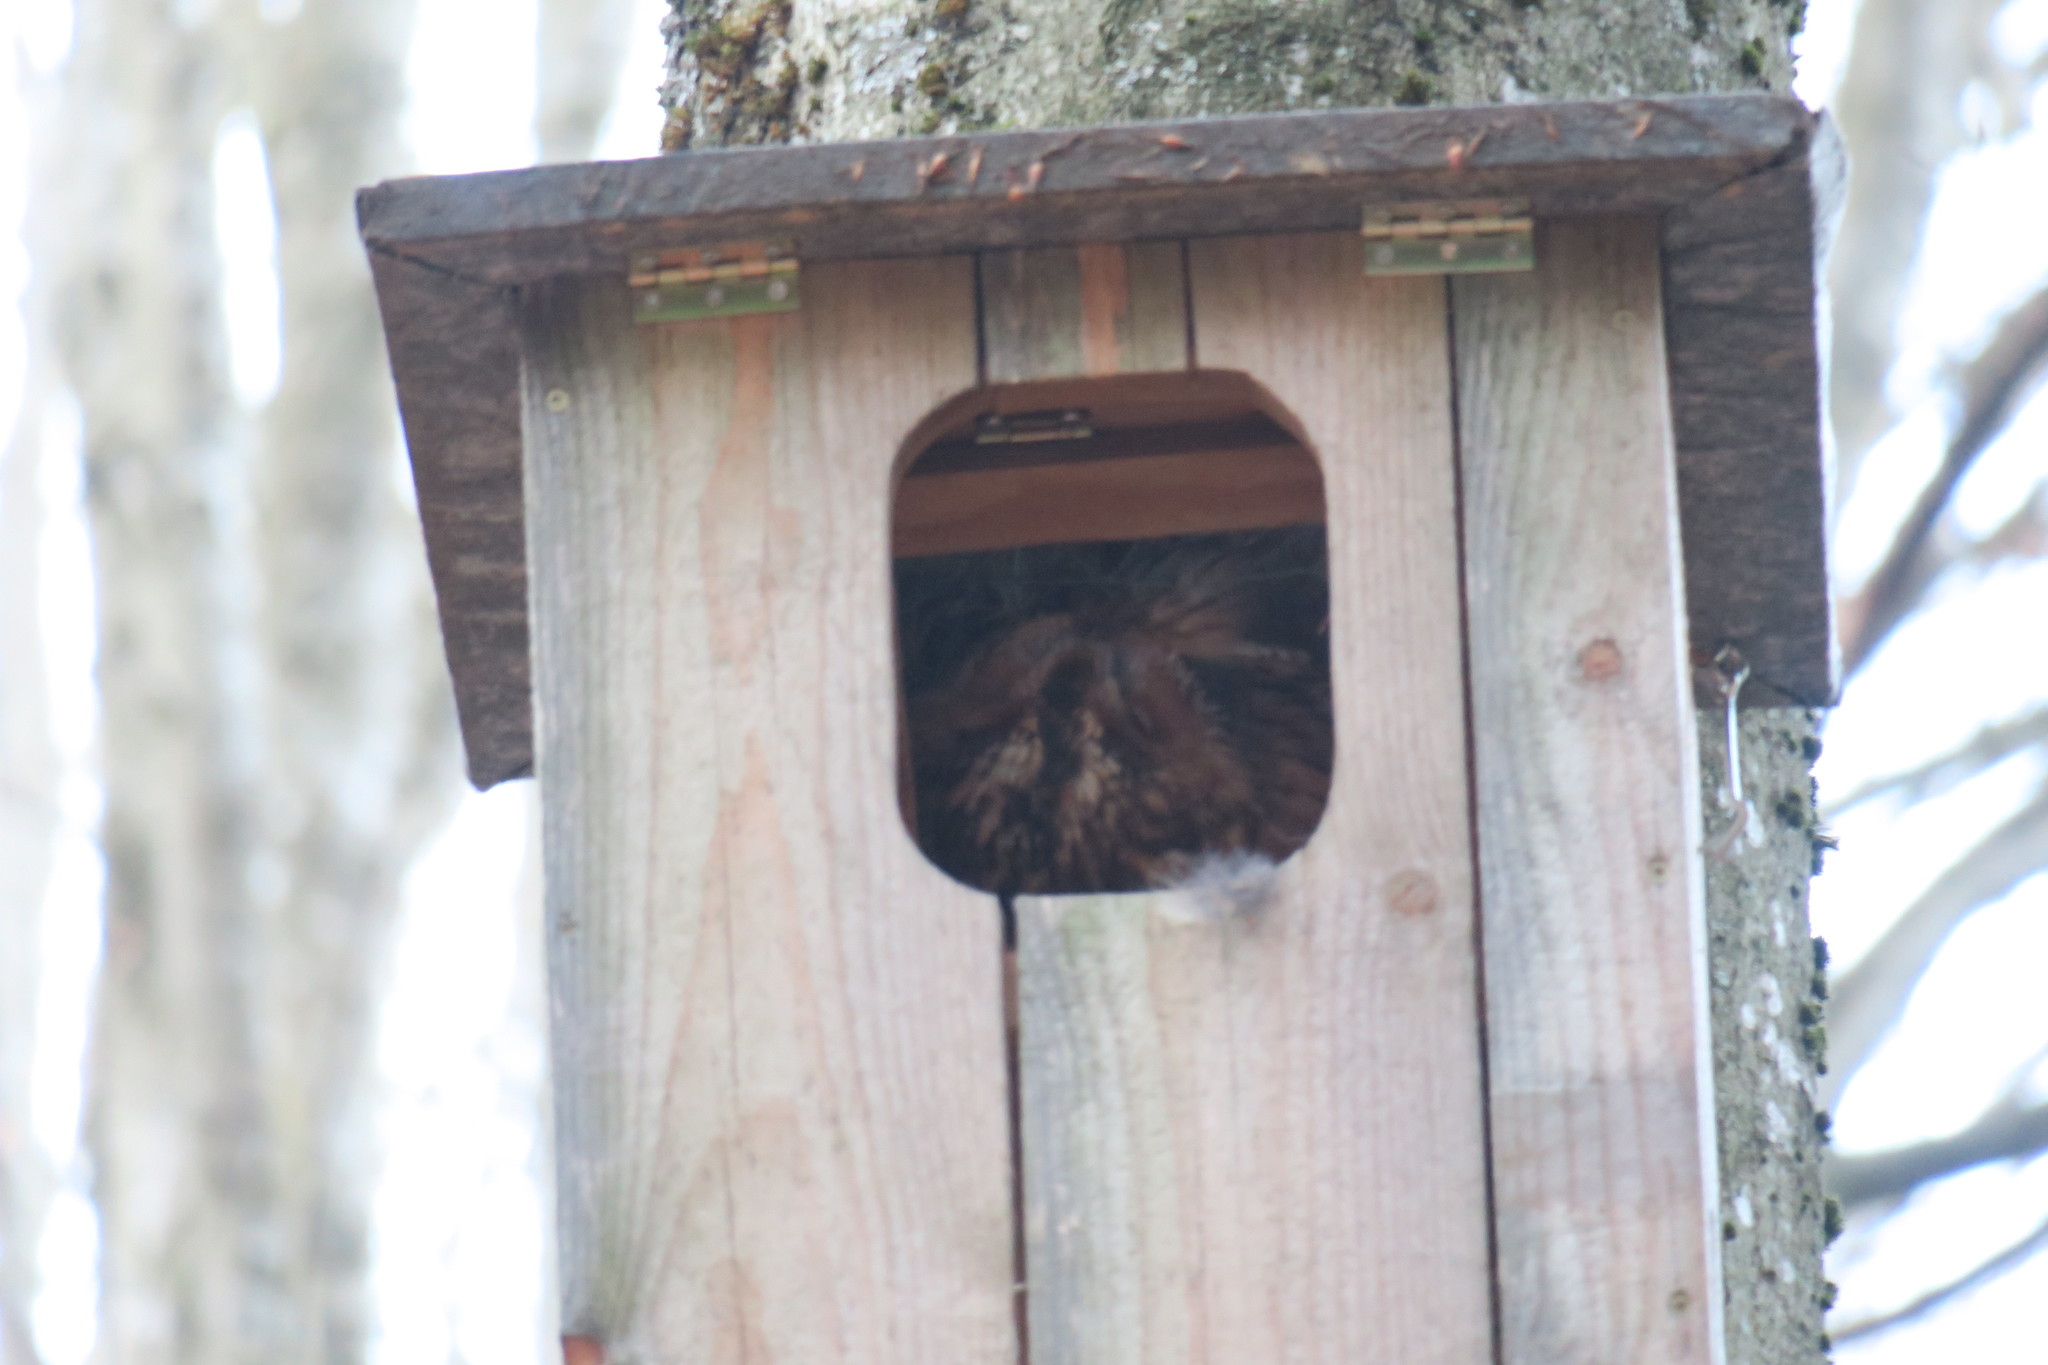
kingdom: Animalia
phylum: Chordata
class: Aves
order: Strigiformes
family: Strigidae
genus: Strix
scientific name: Strix aluco
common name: Tawny owl
